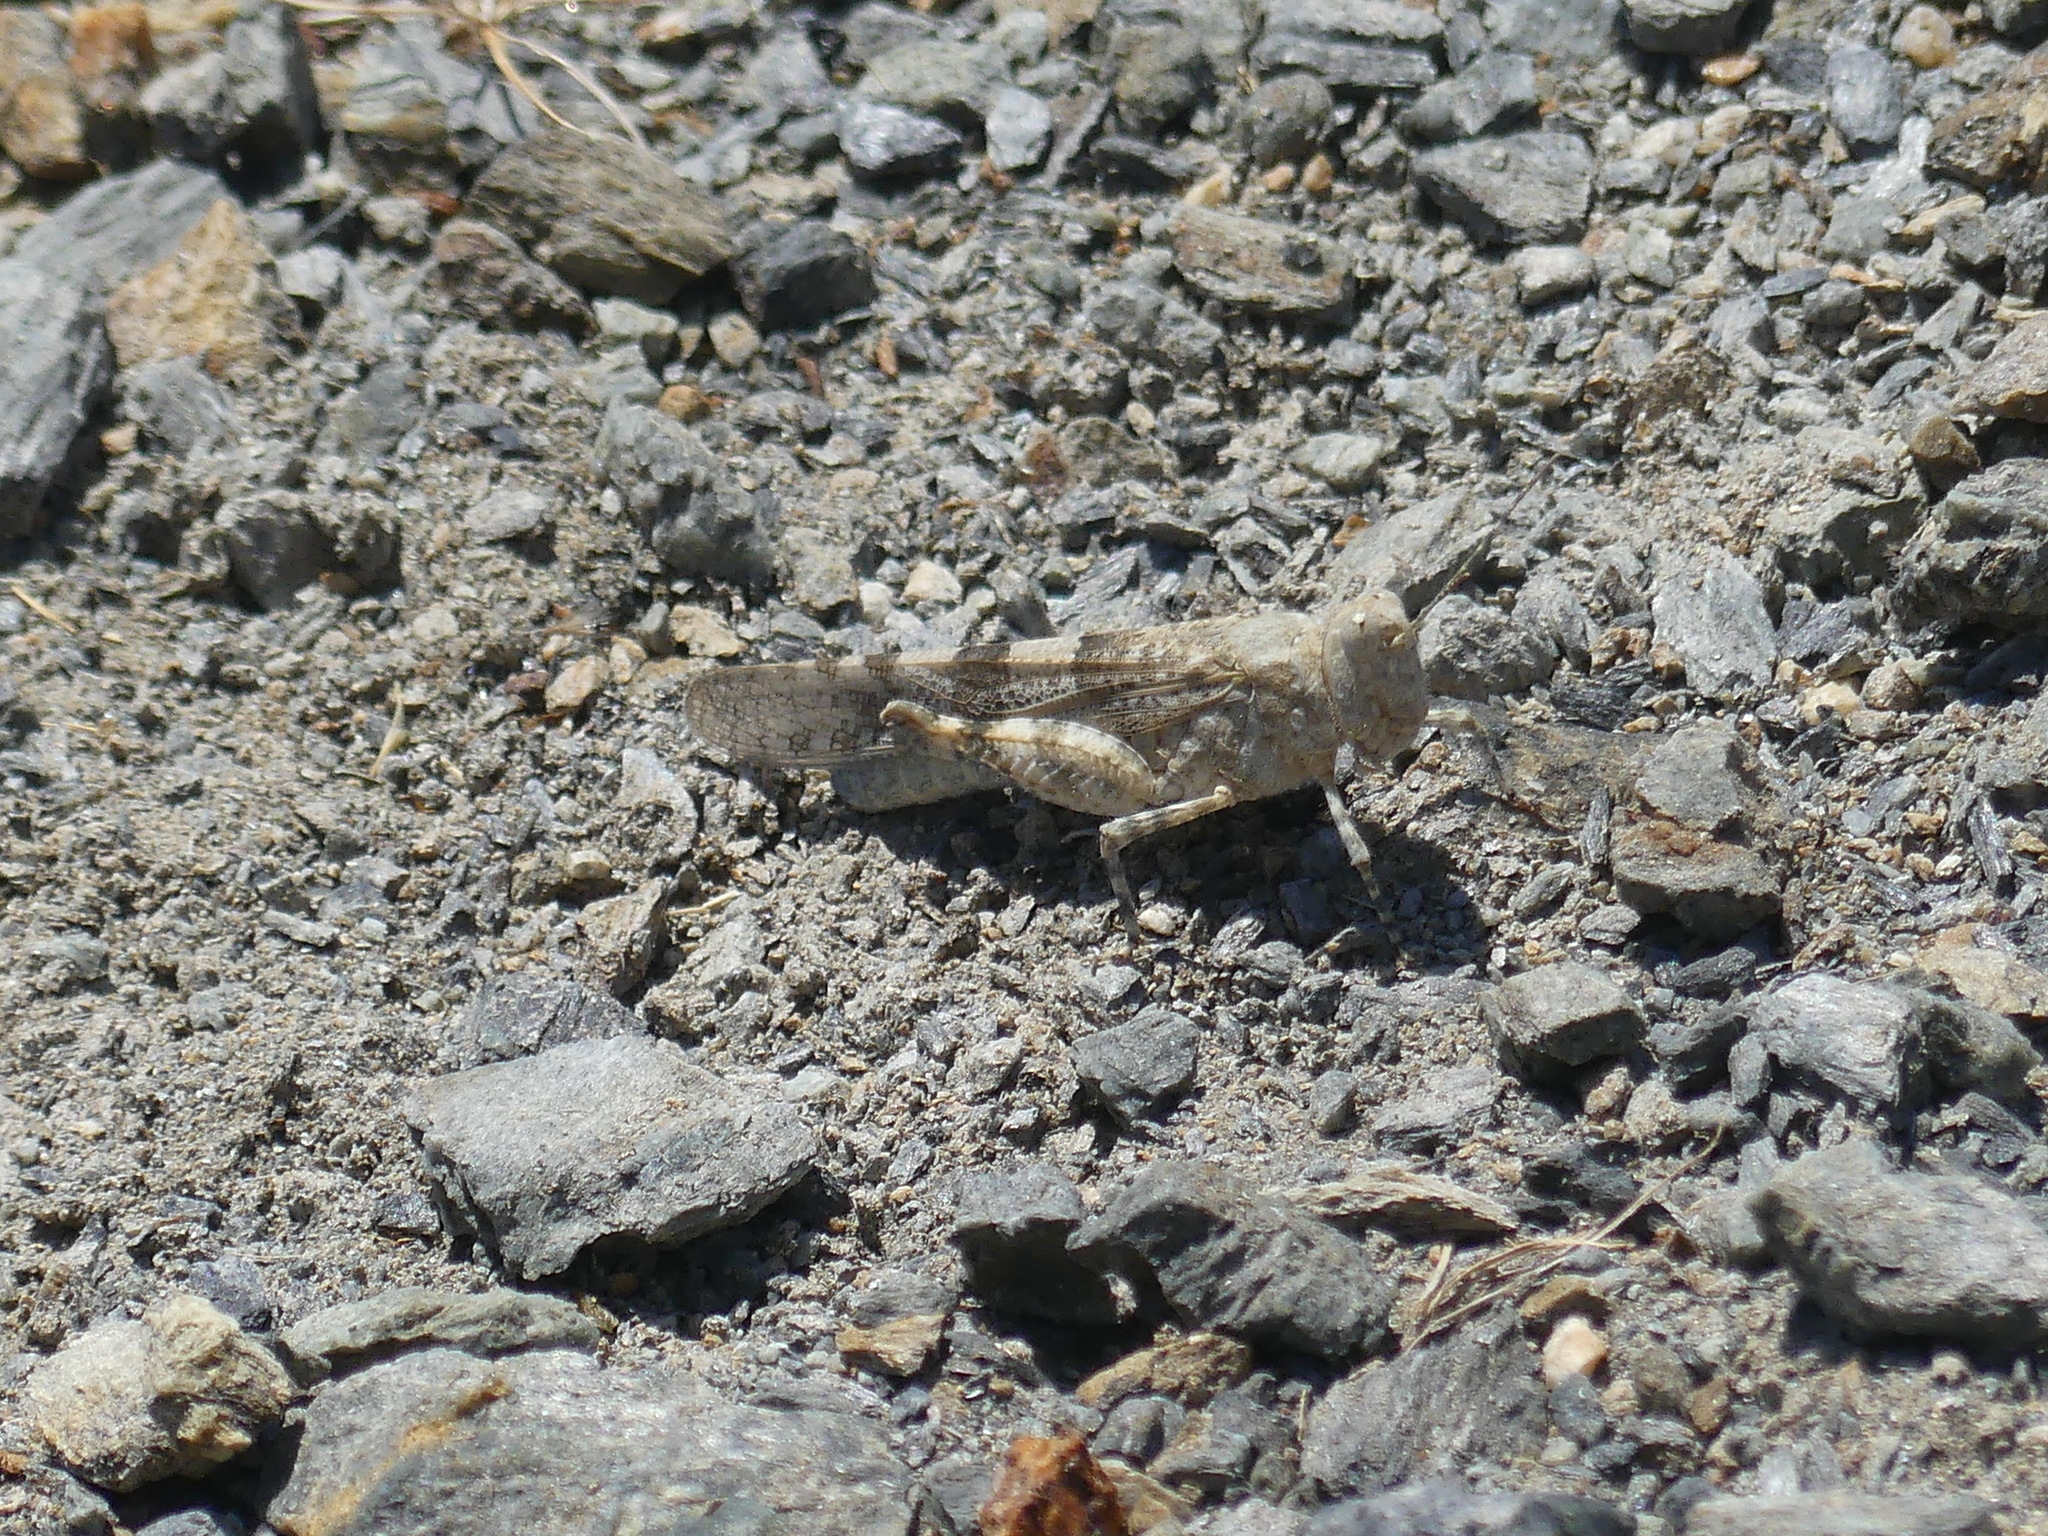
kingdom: Animalia
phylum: Arthropoda
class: Insecta
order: Orthoptera
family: Acrididae
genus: Sphingonotus
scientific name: Sphingonotus corsicus
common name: Corsican sand grasshopper
